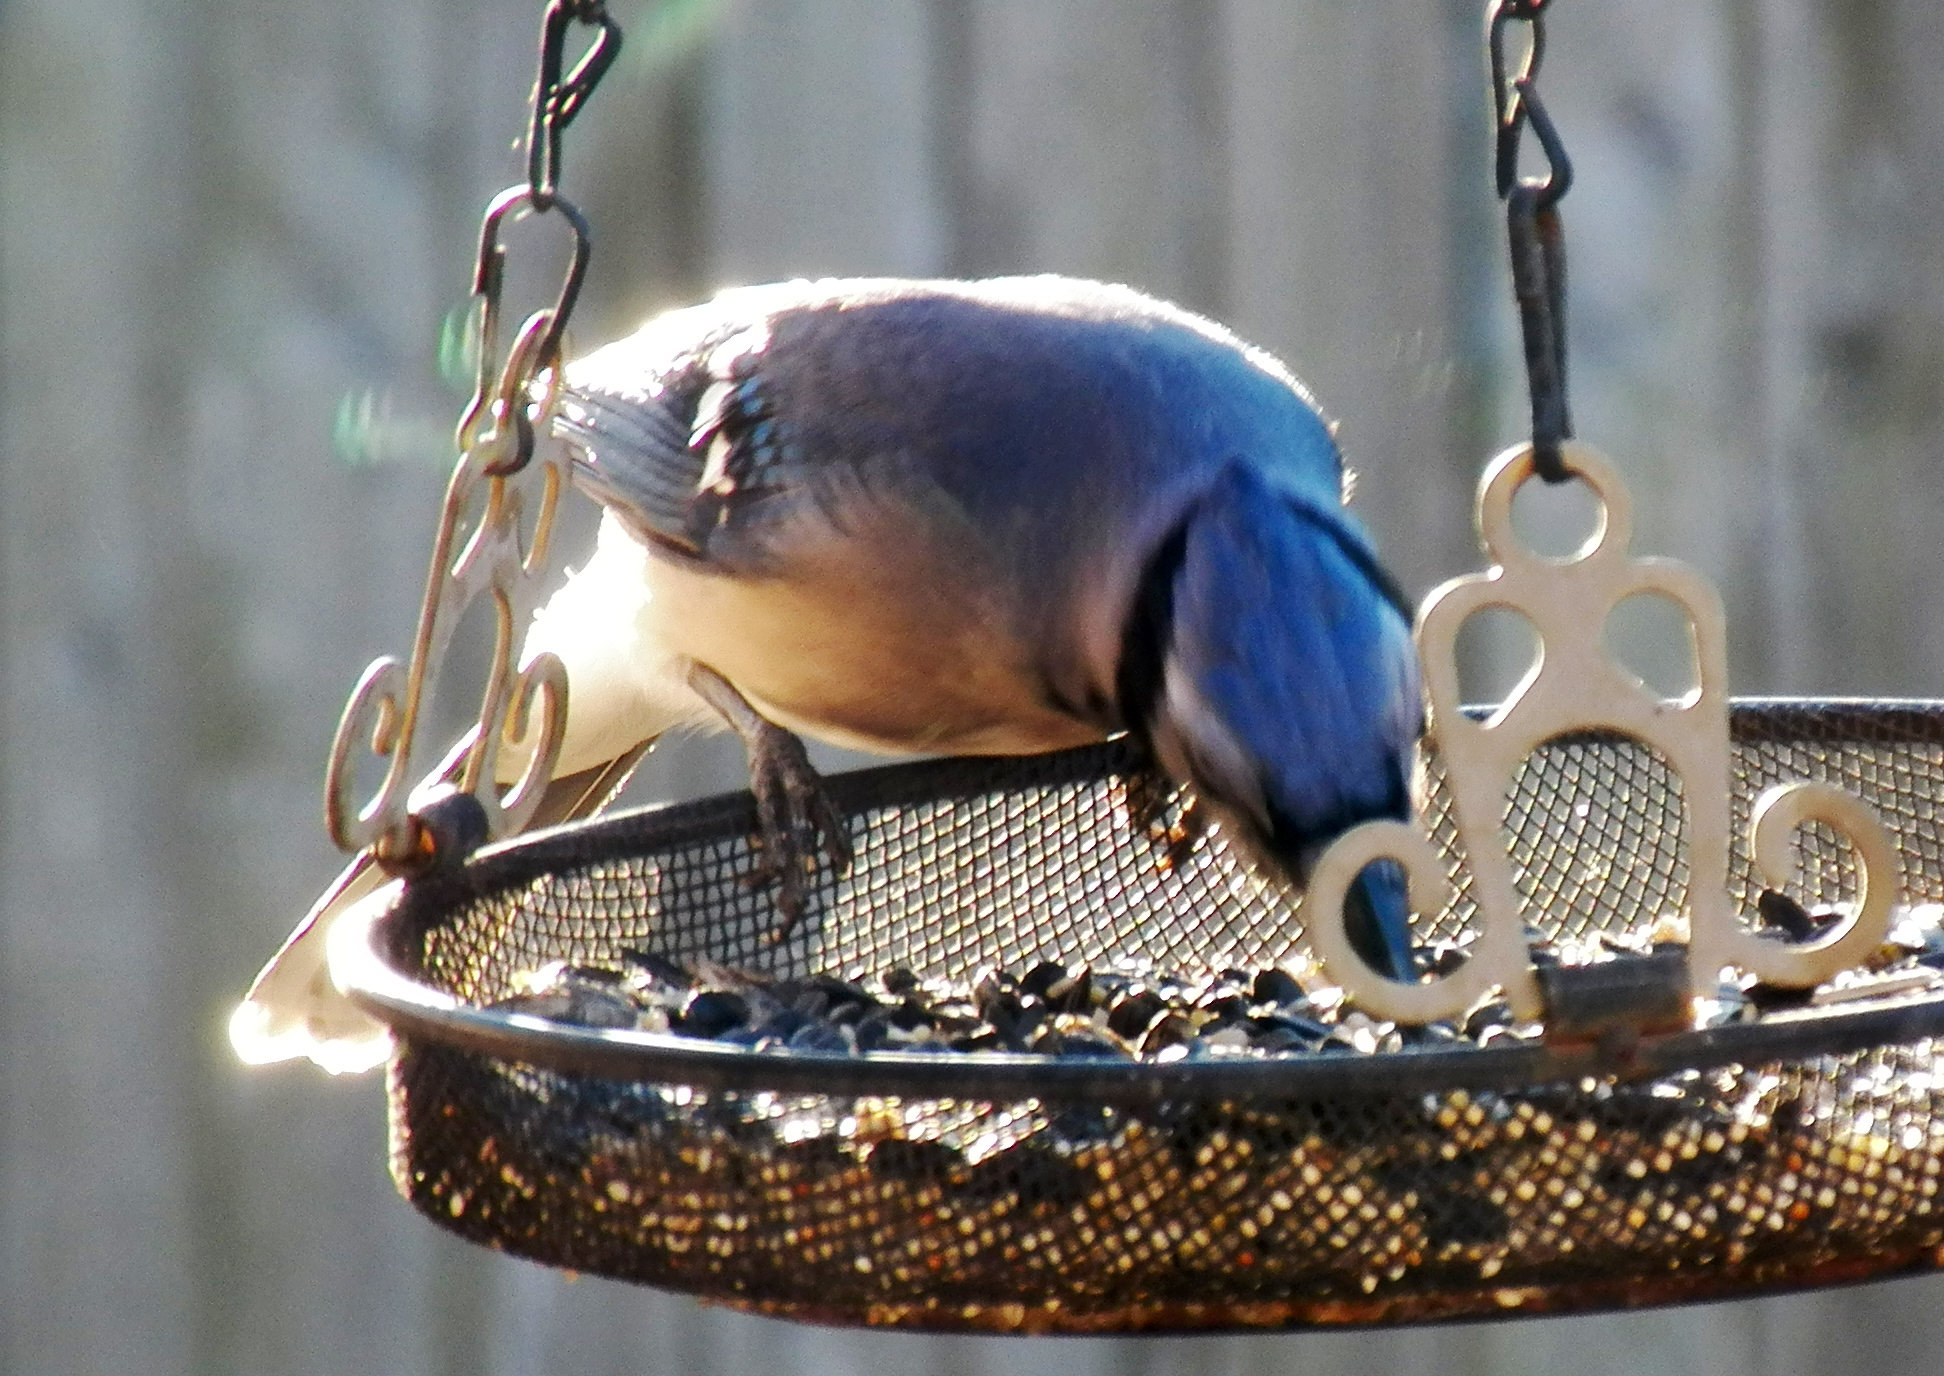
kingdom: Animalia
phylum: Chordata
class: Aves
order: Passeriformes
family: Corvidae
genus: Cyanocitta
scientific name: Cyanocitta cristata
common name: Blue jay
